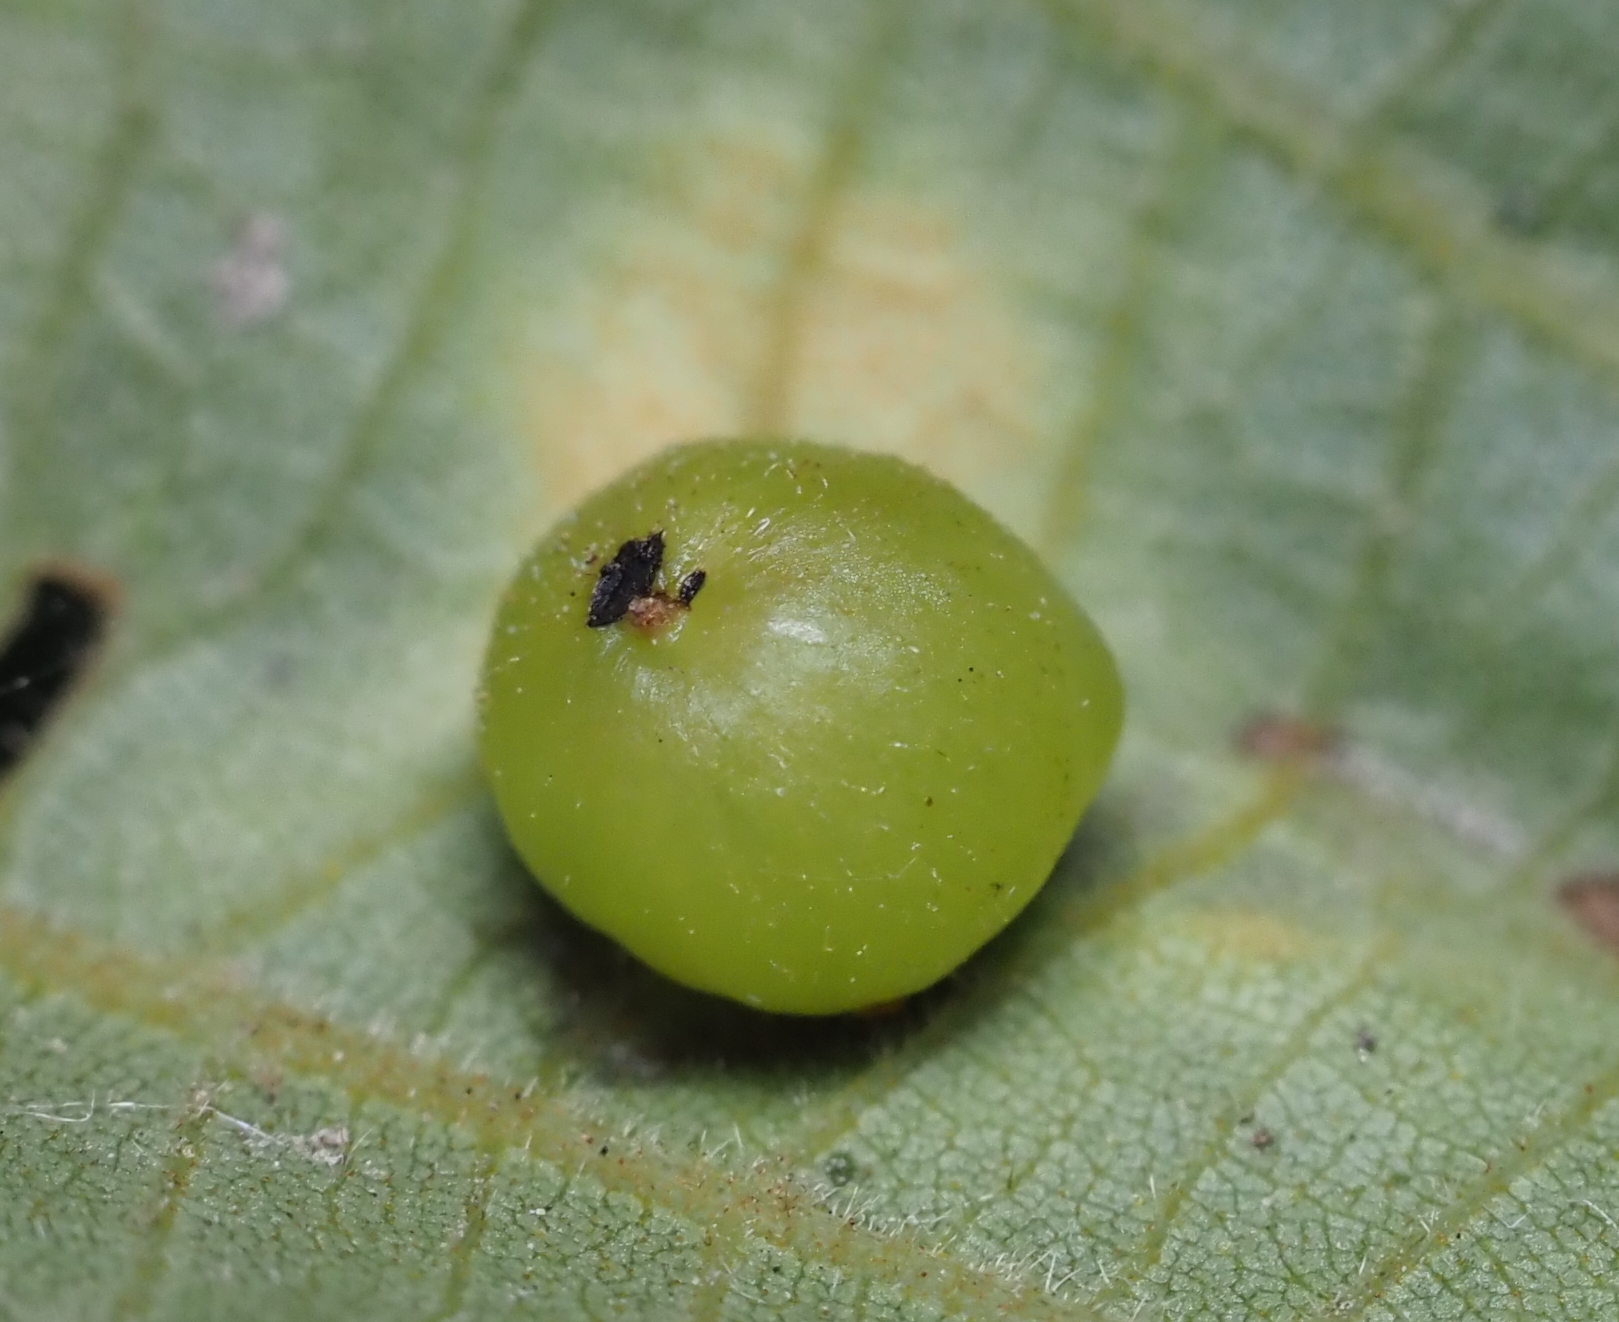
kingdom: Animalia
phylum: Arthropoda
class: Insecta
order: Diptera
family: Cecidomyiidae
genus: Caryomyia
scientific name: Caryomyia deflexipili
